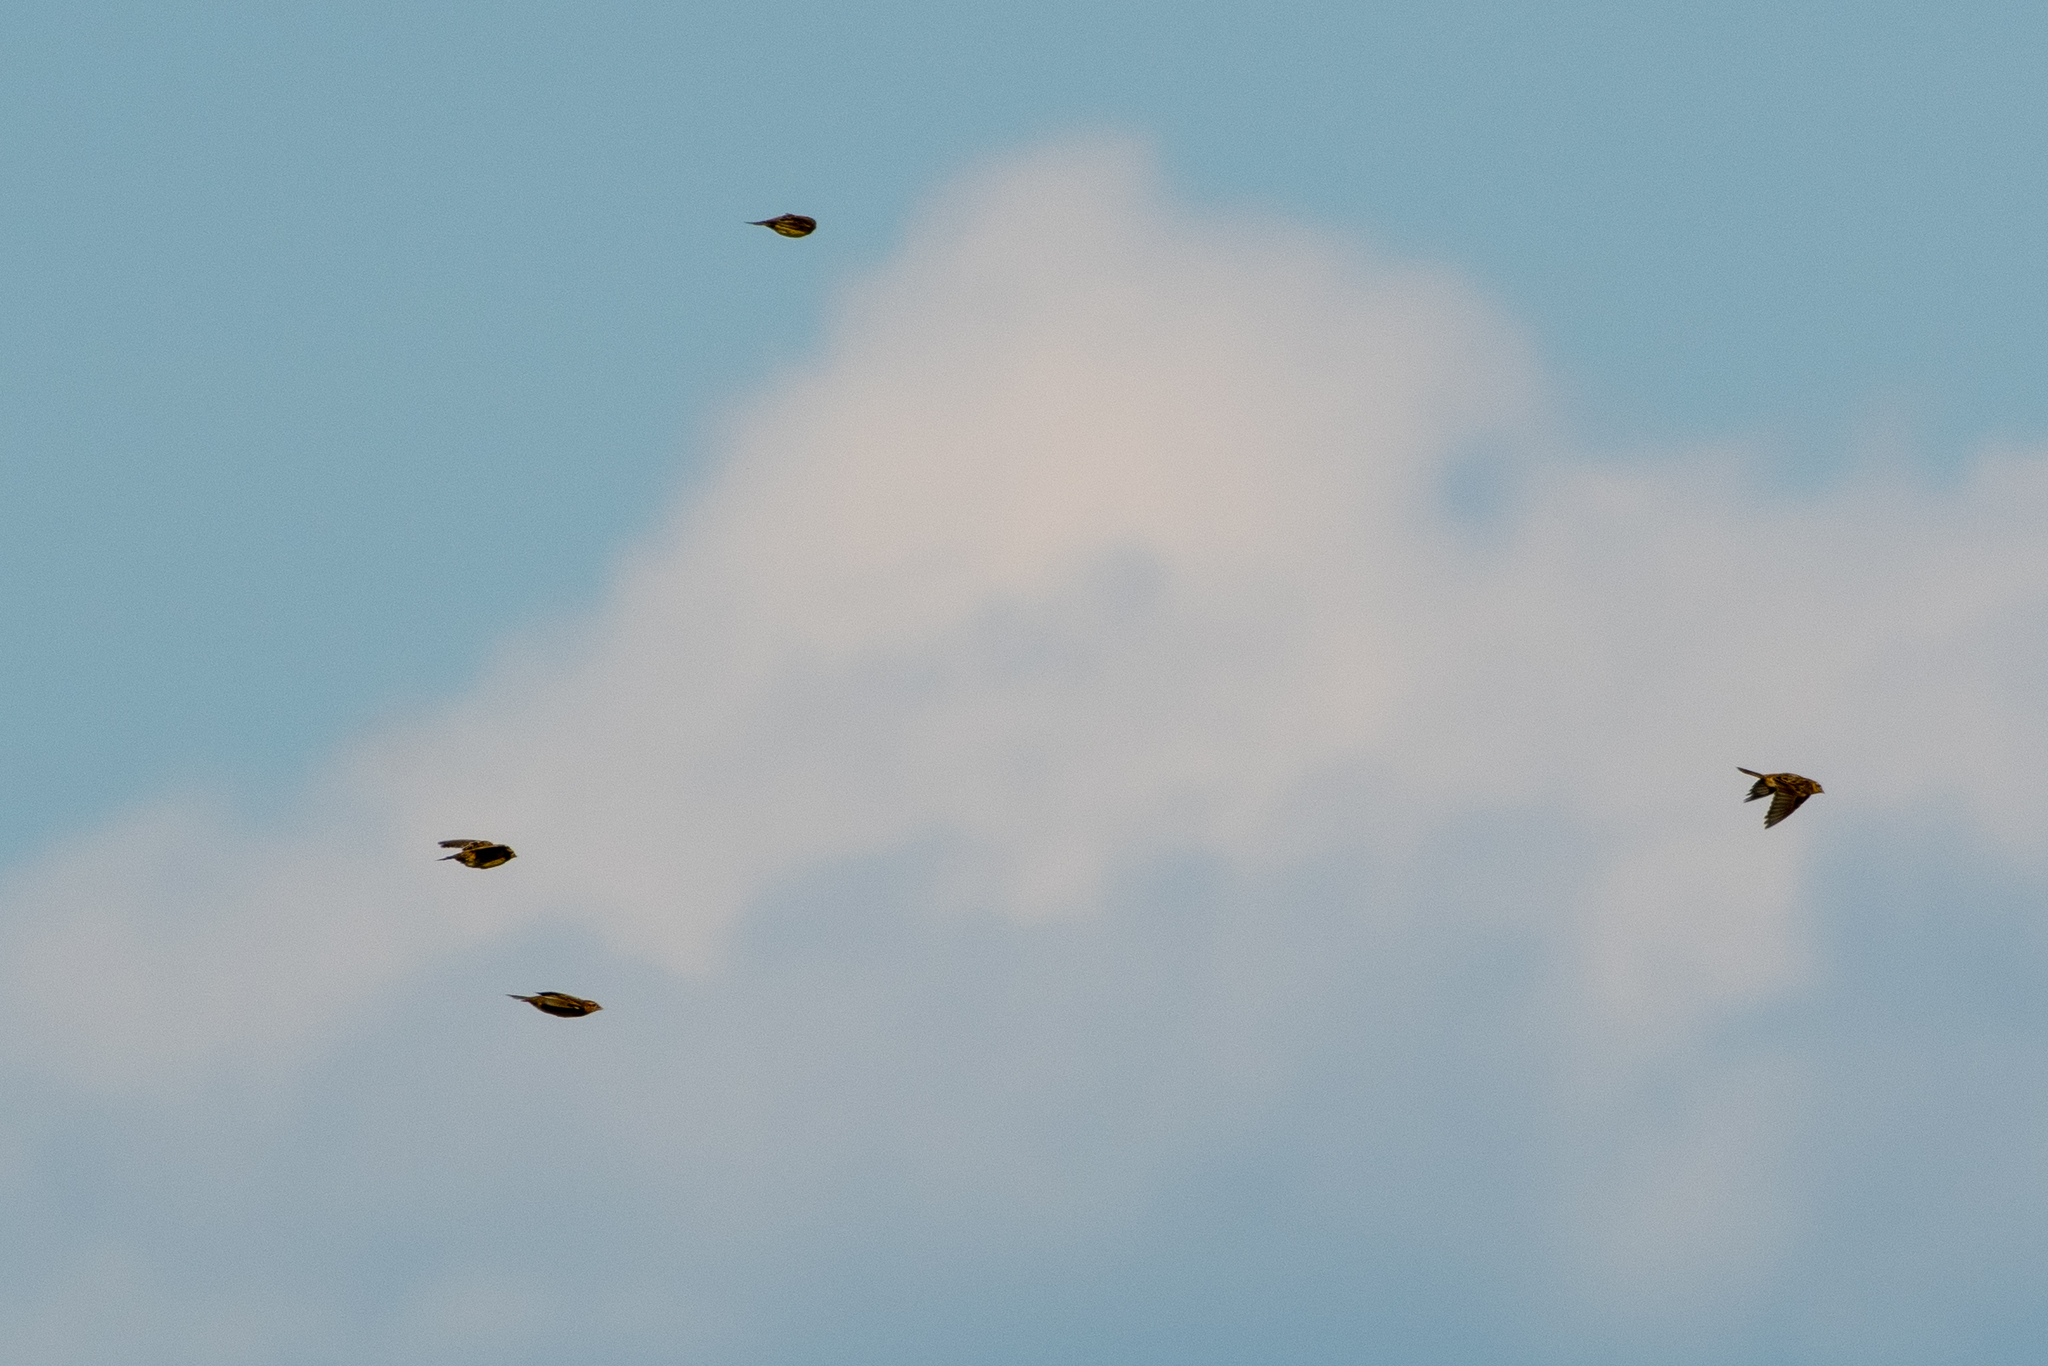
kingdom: Animalia
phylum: Chordata
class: Aves
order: Passeriformes
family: Icteridae
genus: Dolichonyx
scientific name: Dolichonyx oryzivorus
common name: Bobolink
